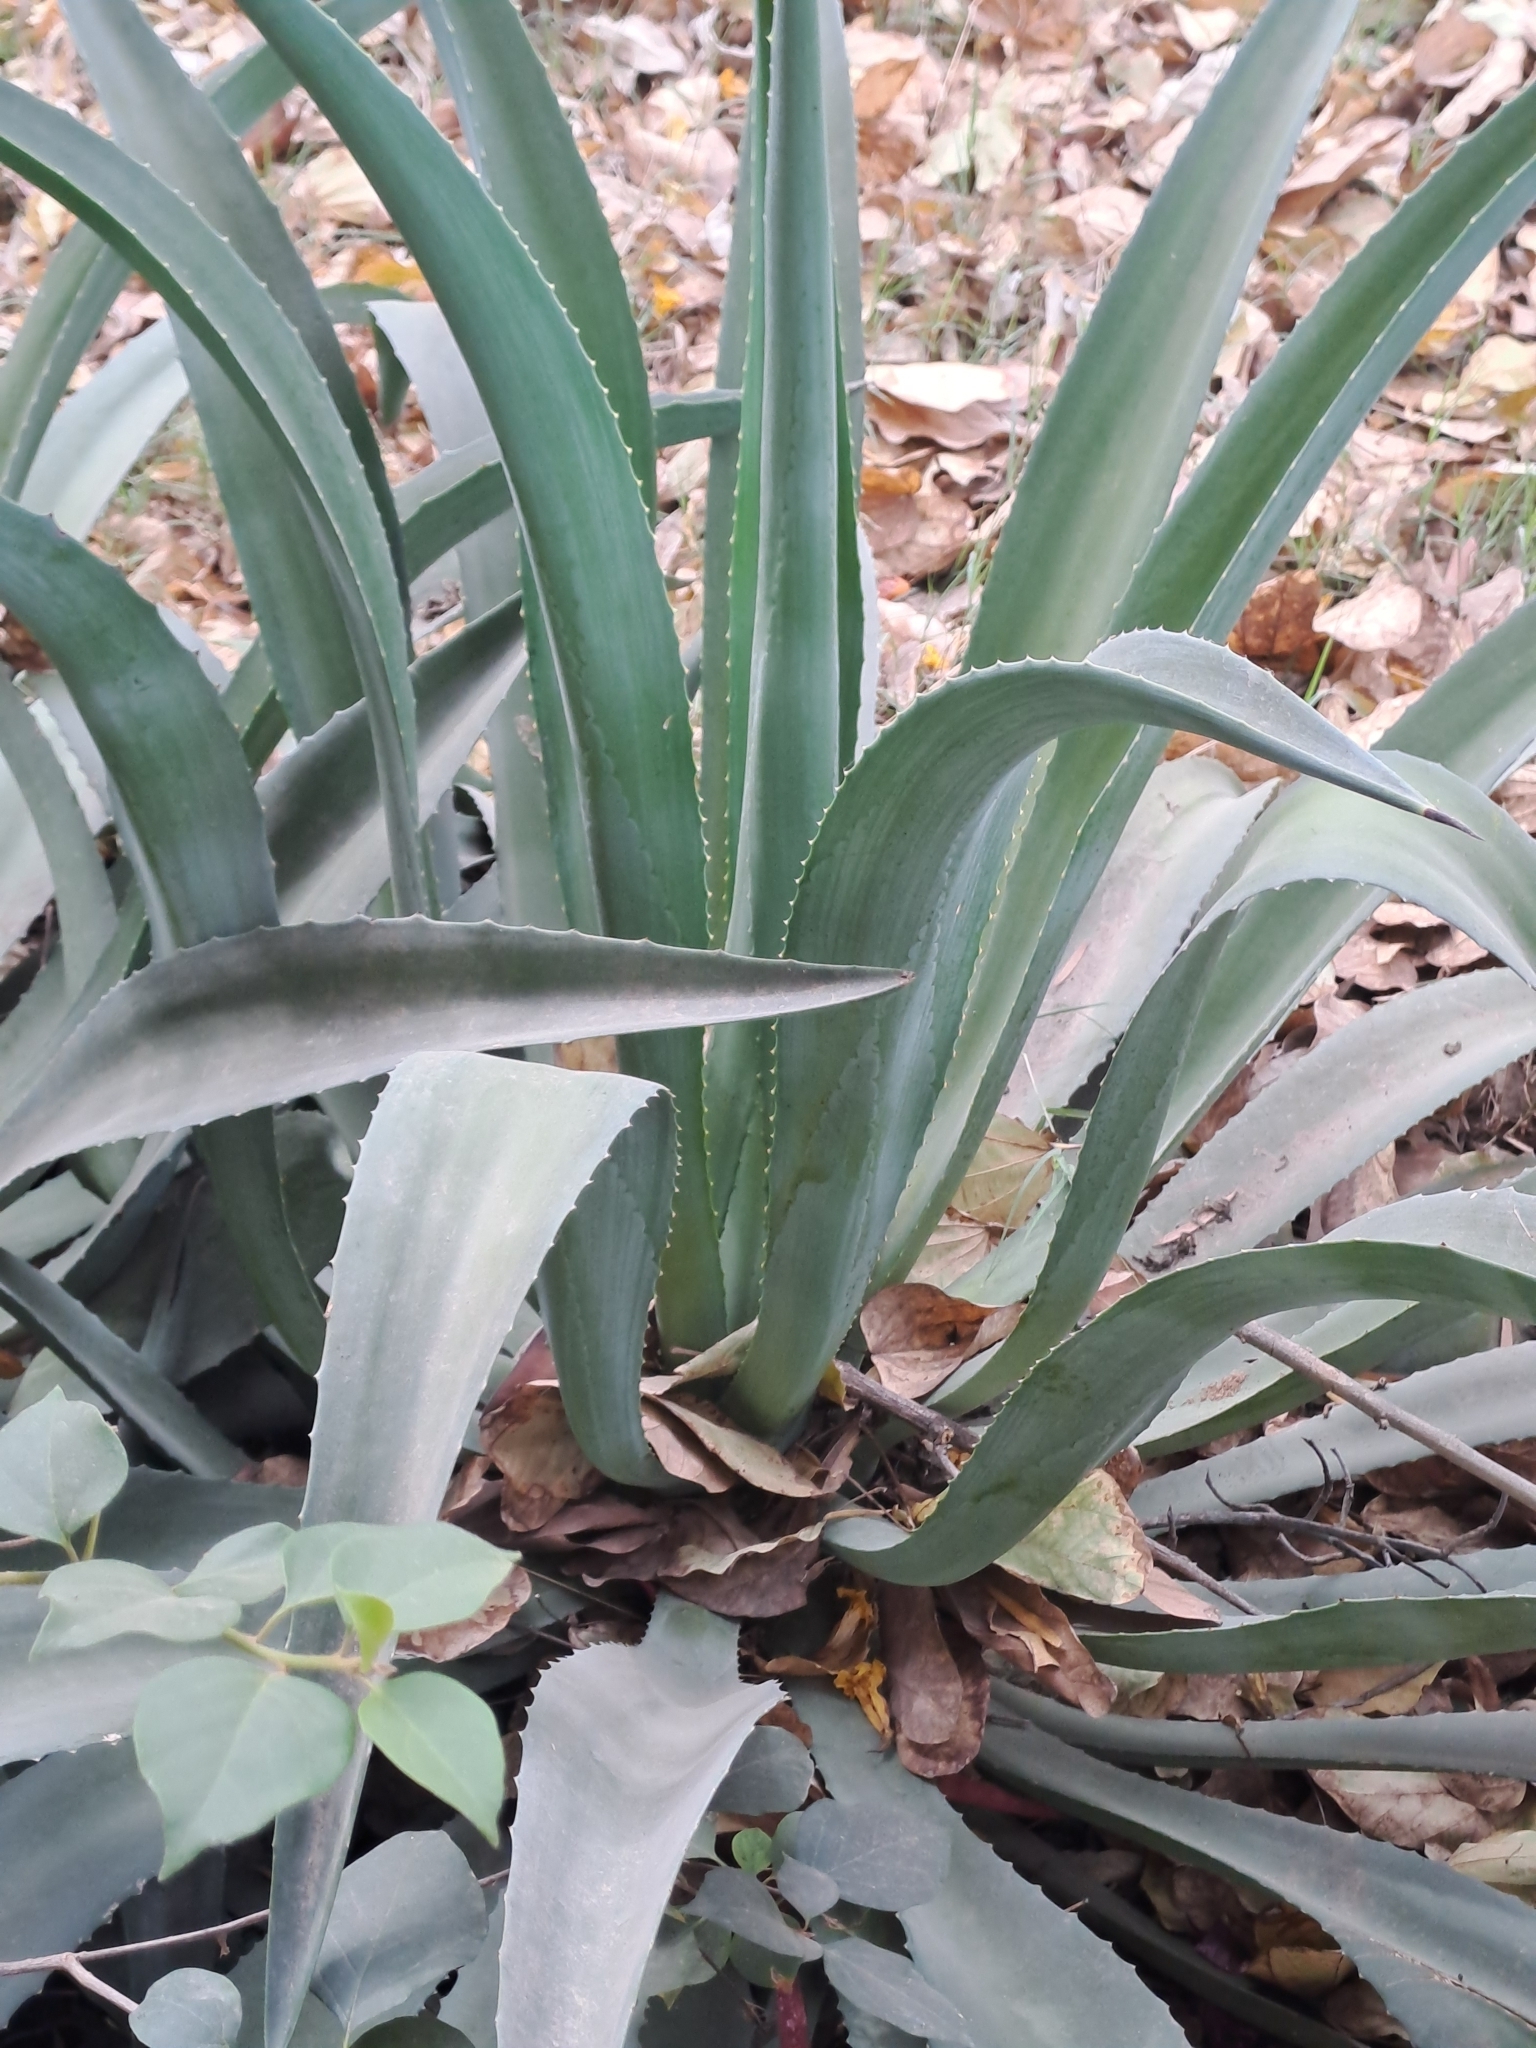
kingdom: Plantae
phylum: Tracheophyta
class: Liliopsida
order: Asparagales
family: Asparagaceae
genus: Agave
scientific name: Agave
